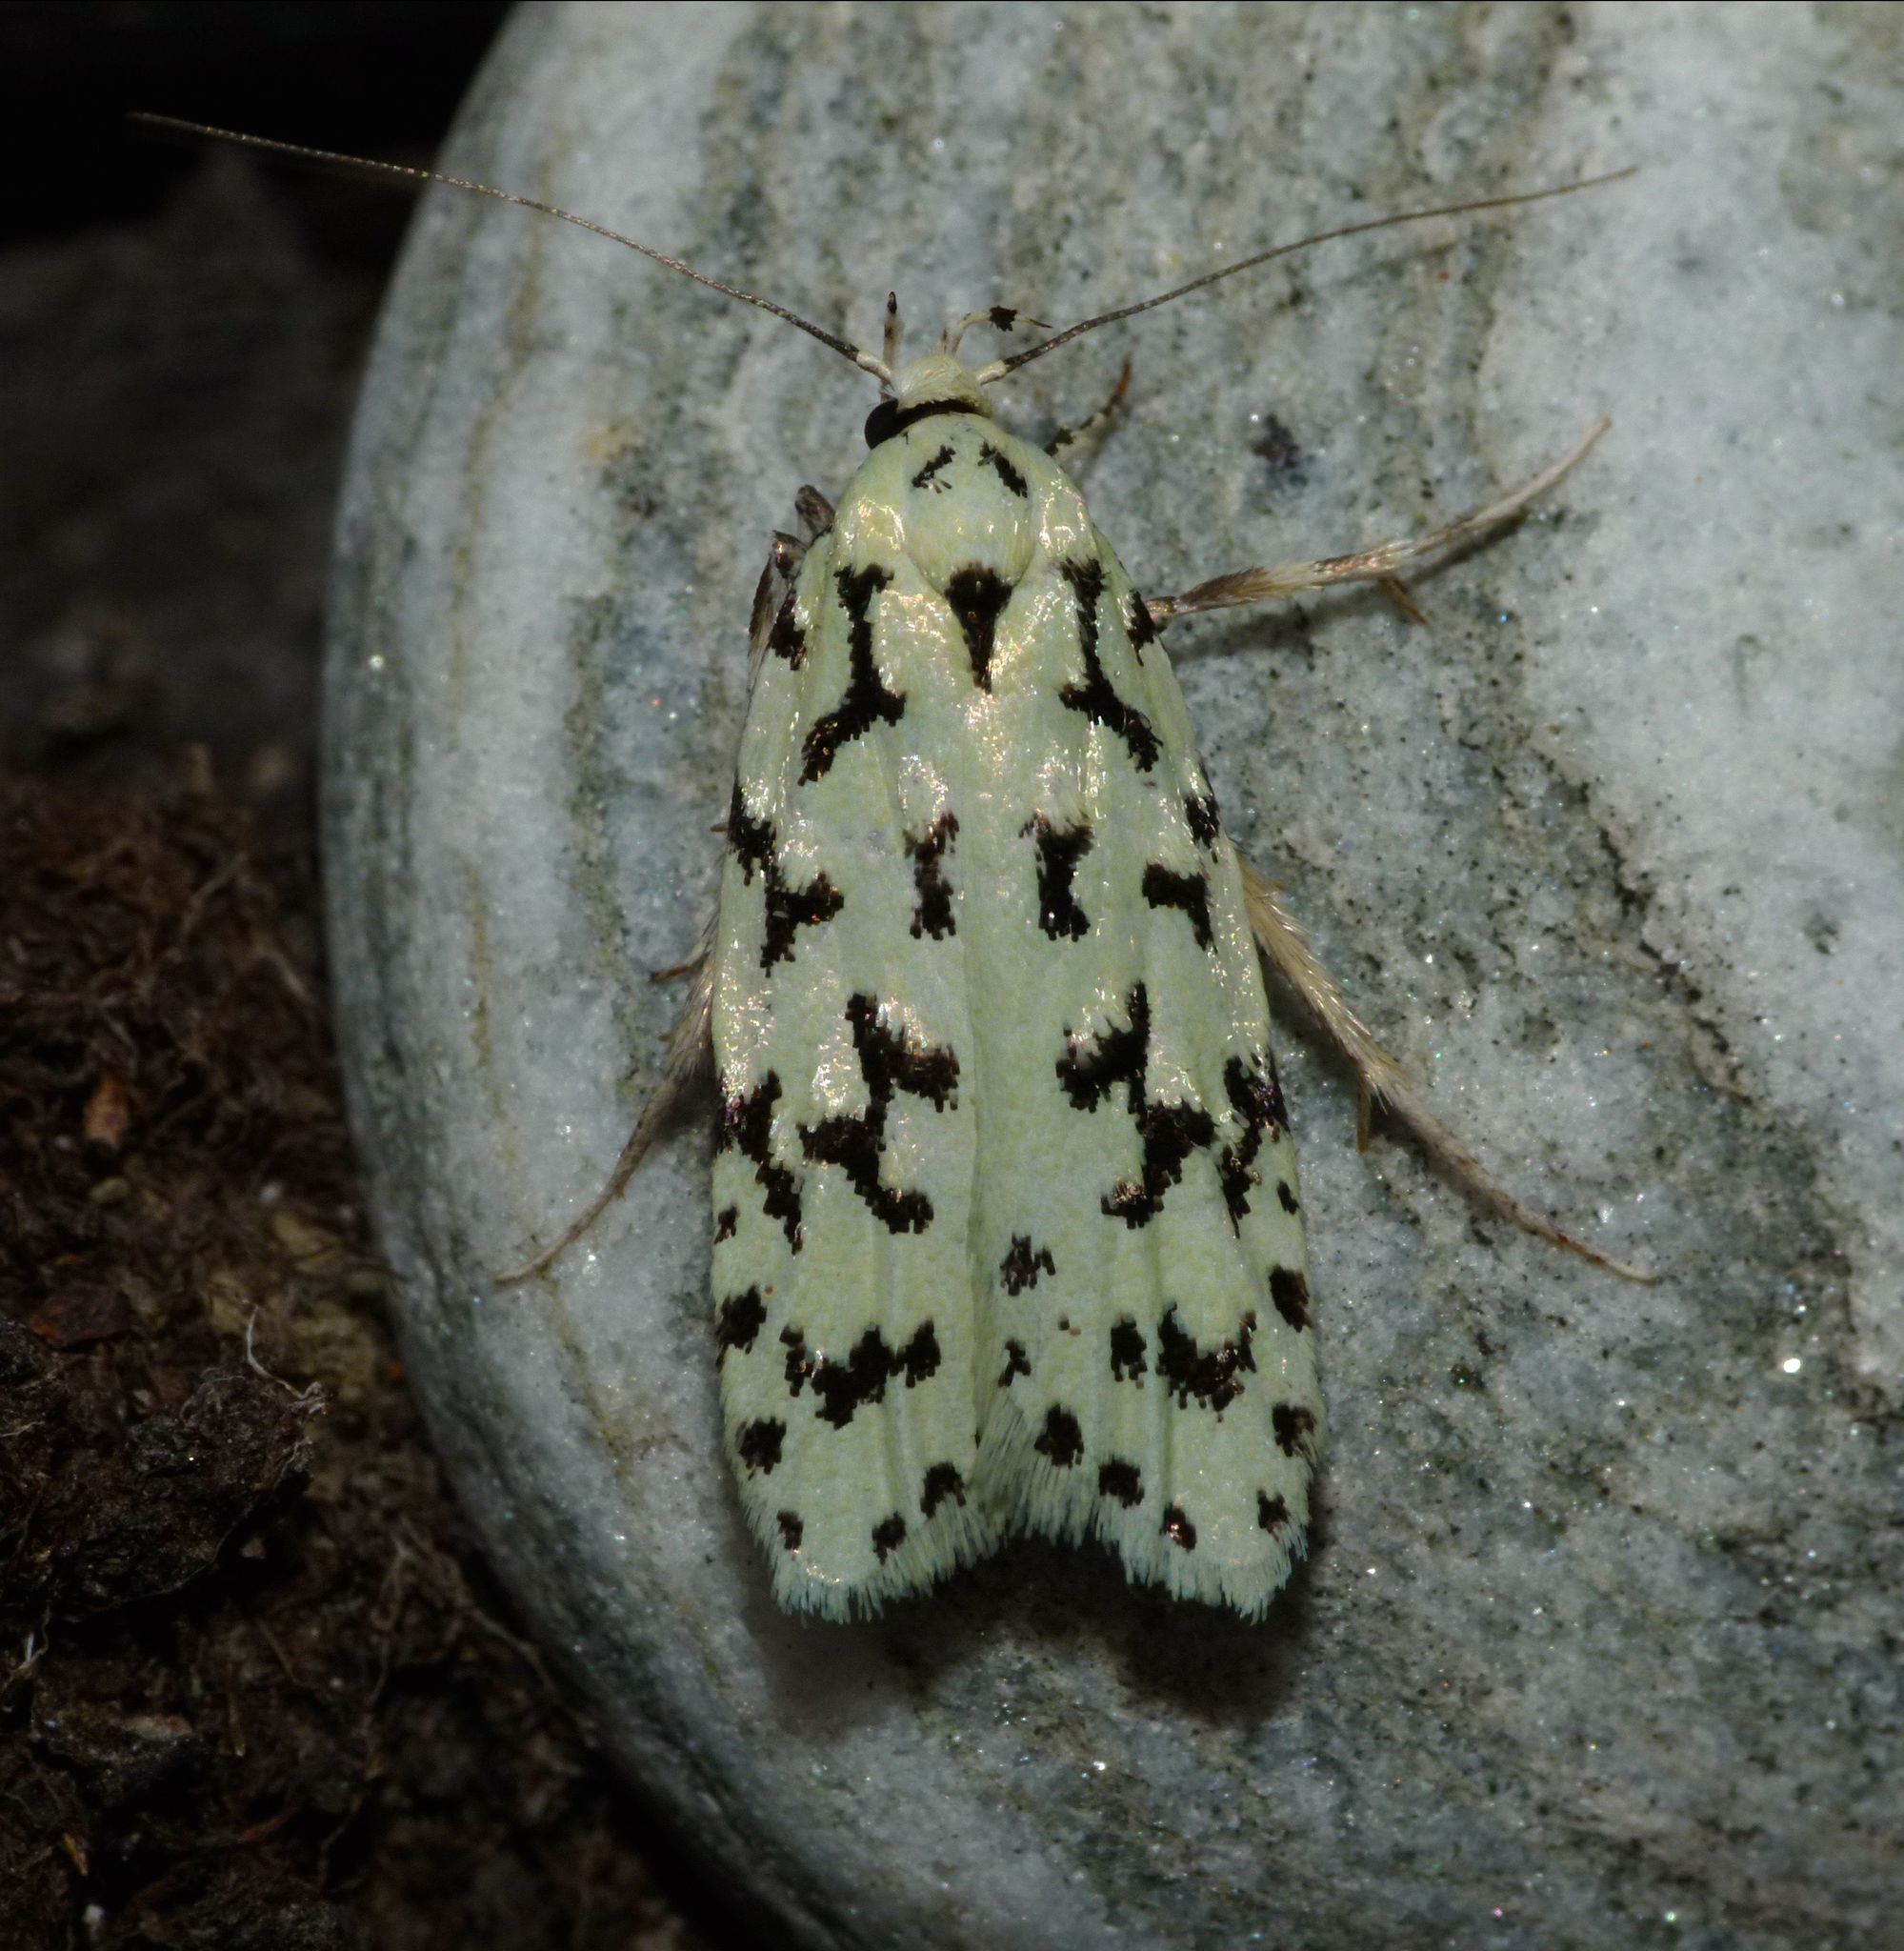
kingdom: Animalia
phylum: Arthropoda
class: Insecta
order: Lepidoptera
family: Oecophoridae
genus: Izatha
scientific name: Izatha huttoni
